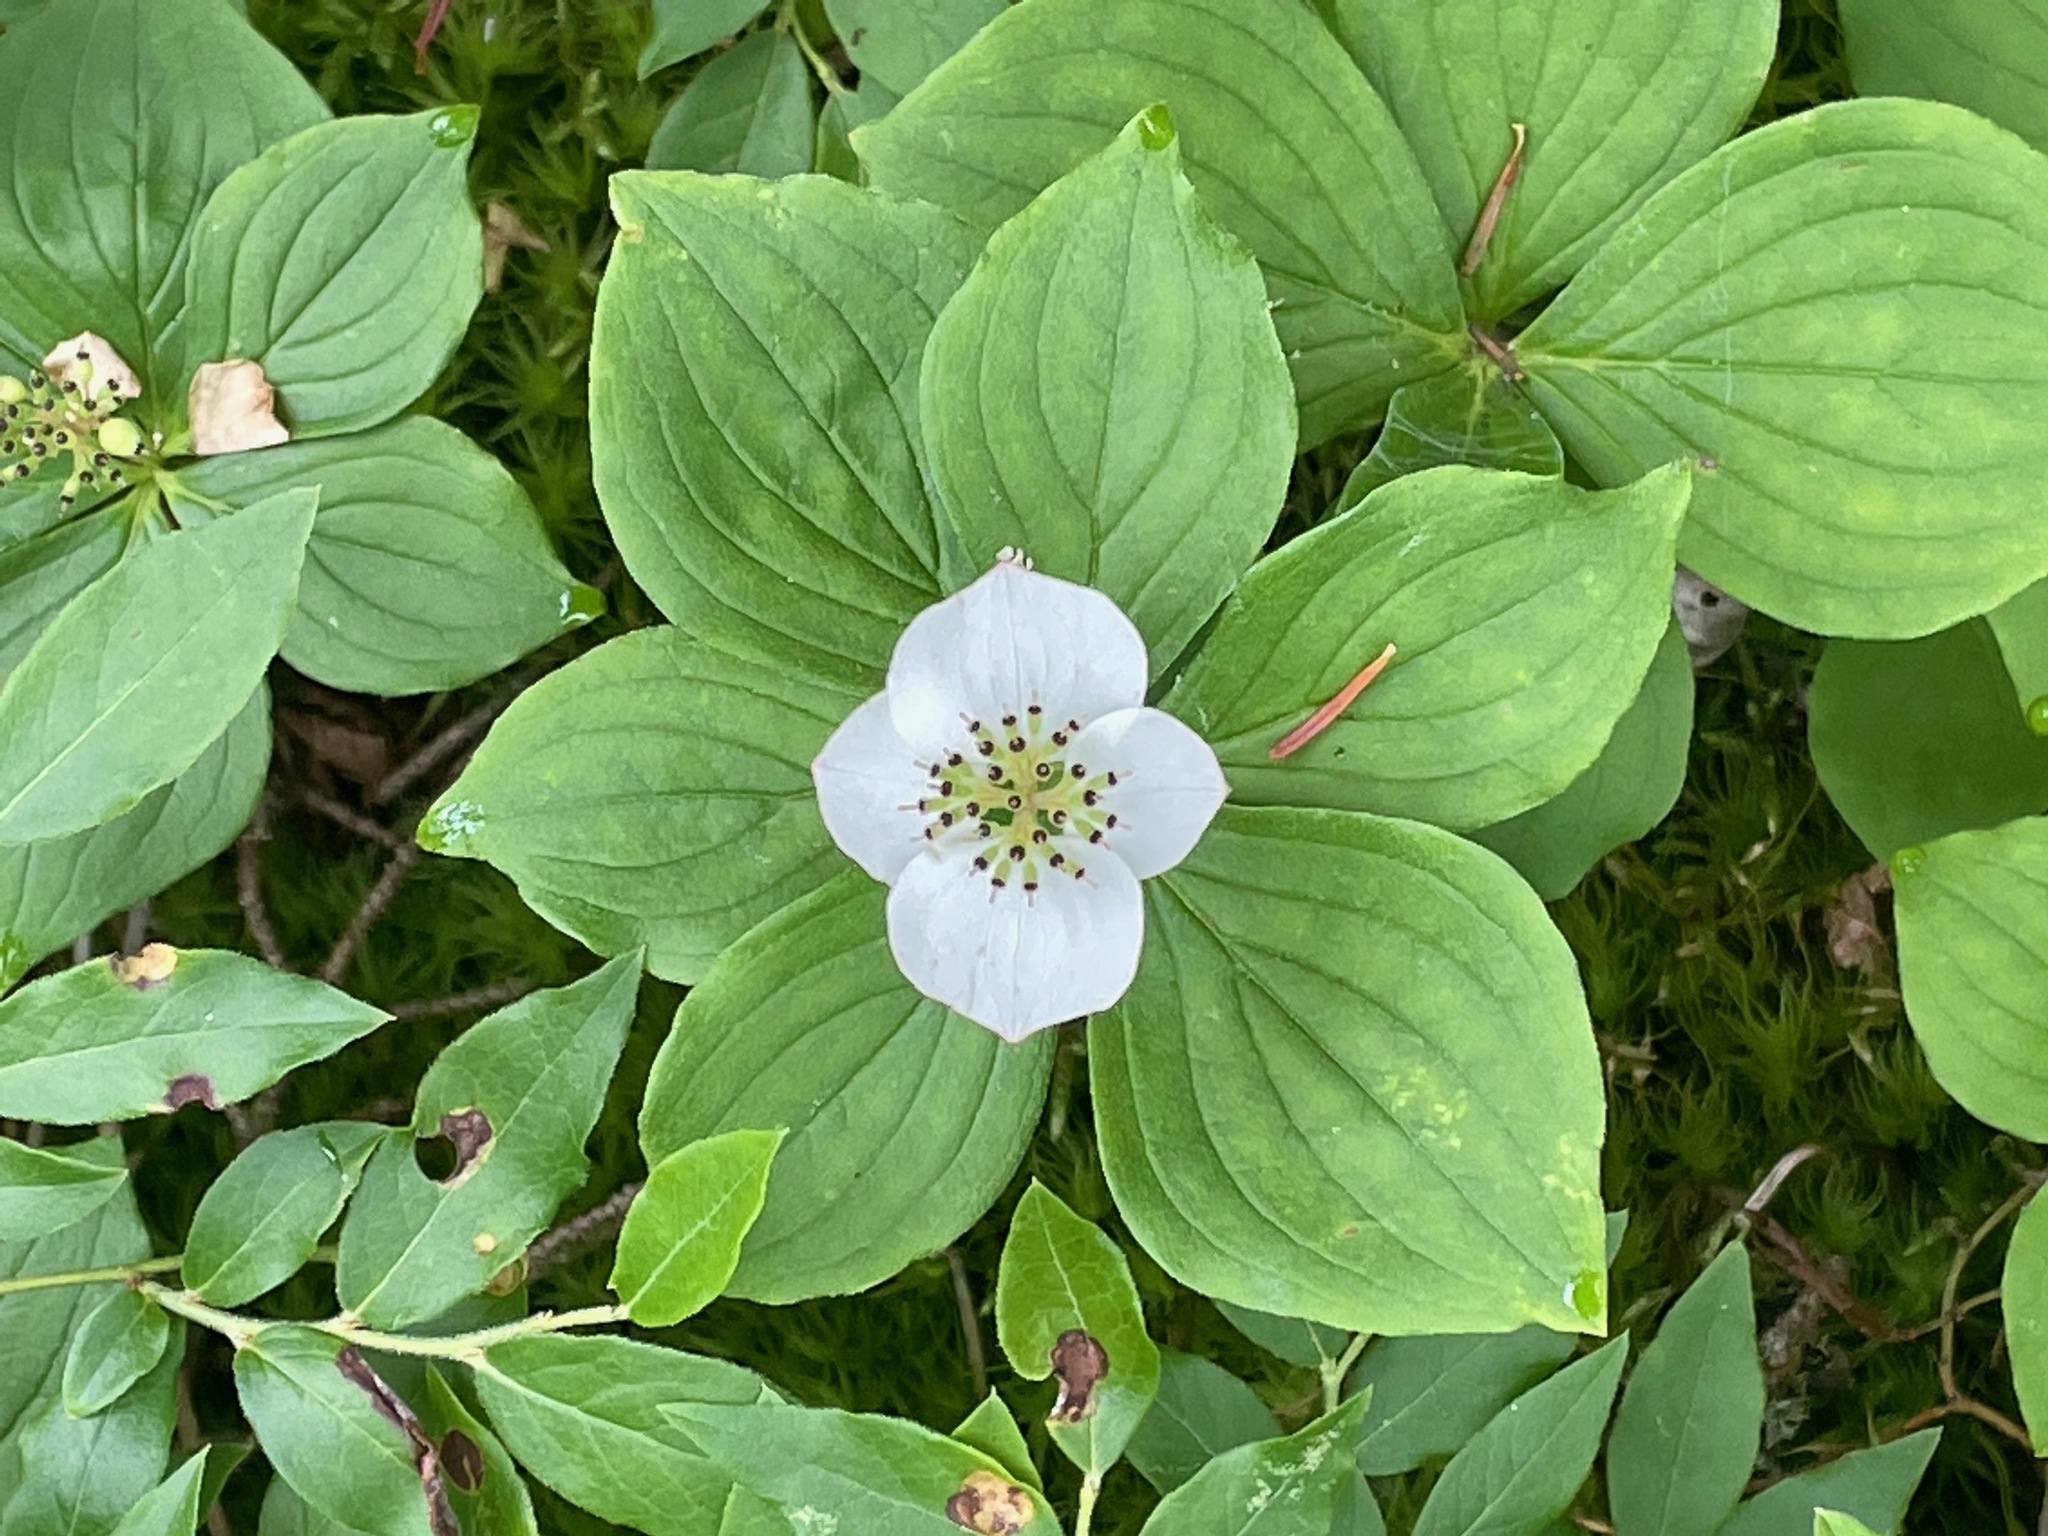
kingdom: Plantae
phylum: Tracheophyta
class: Magnoliopsida
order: Cornales
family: Cornaceae
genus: Cornus
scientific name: Cornus canadensis
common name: Creeping dogwood
